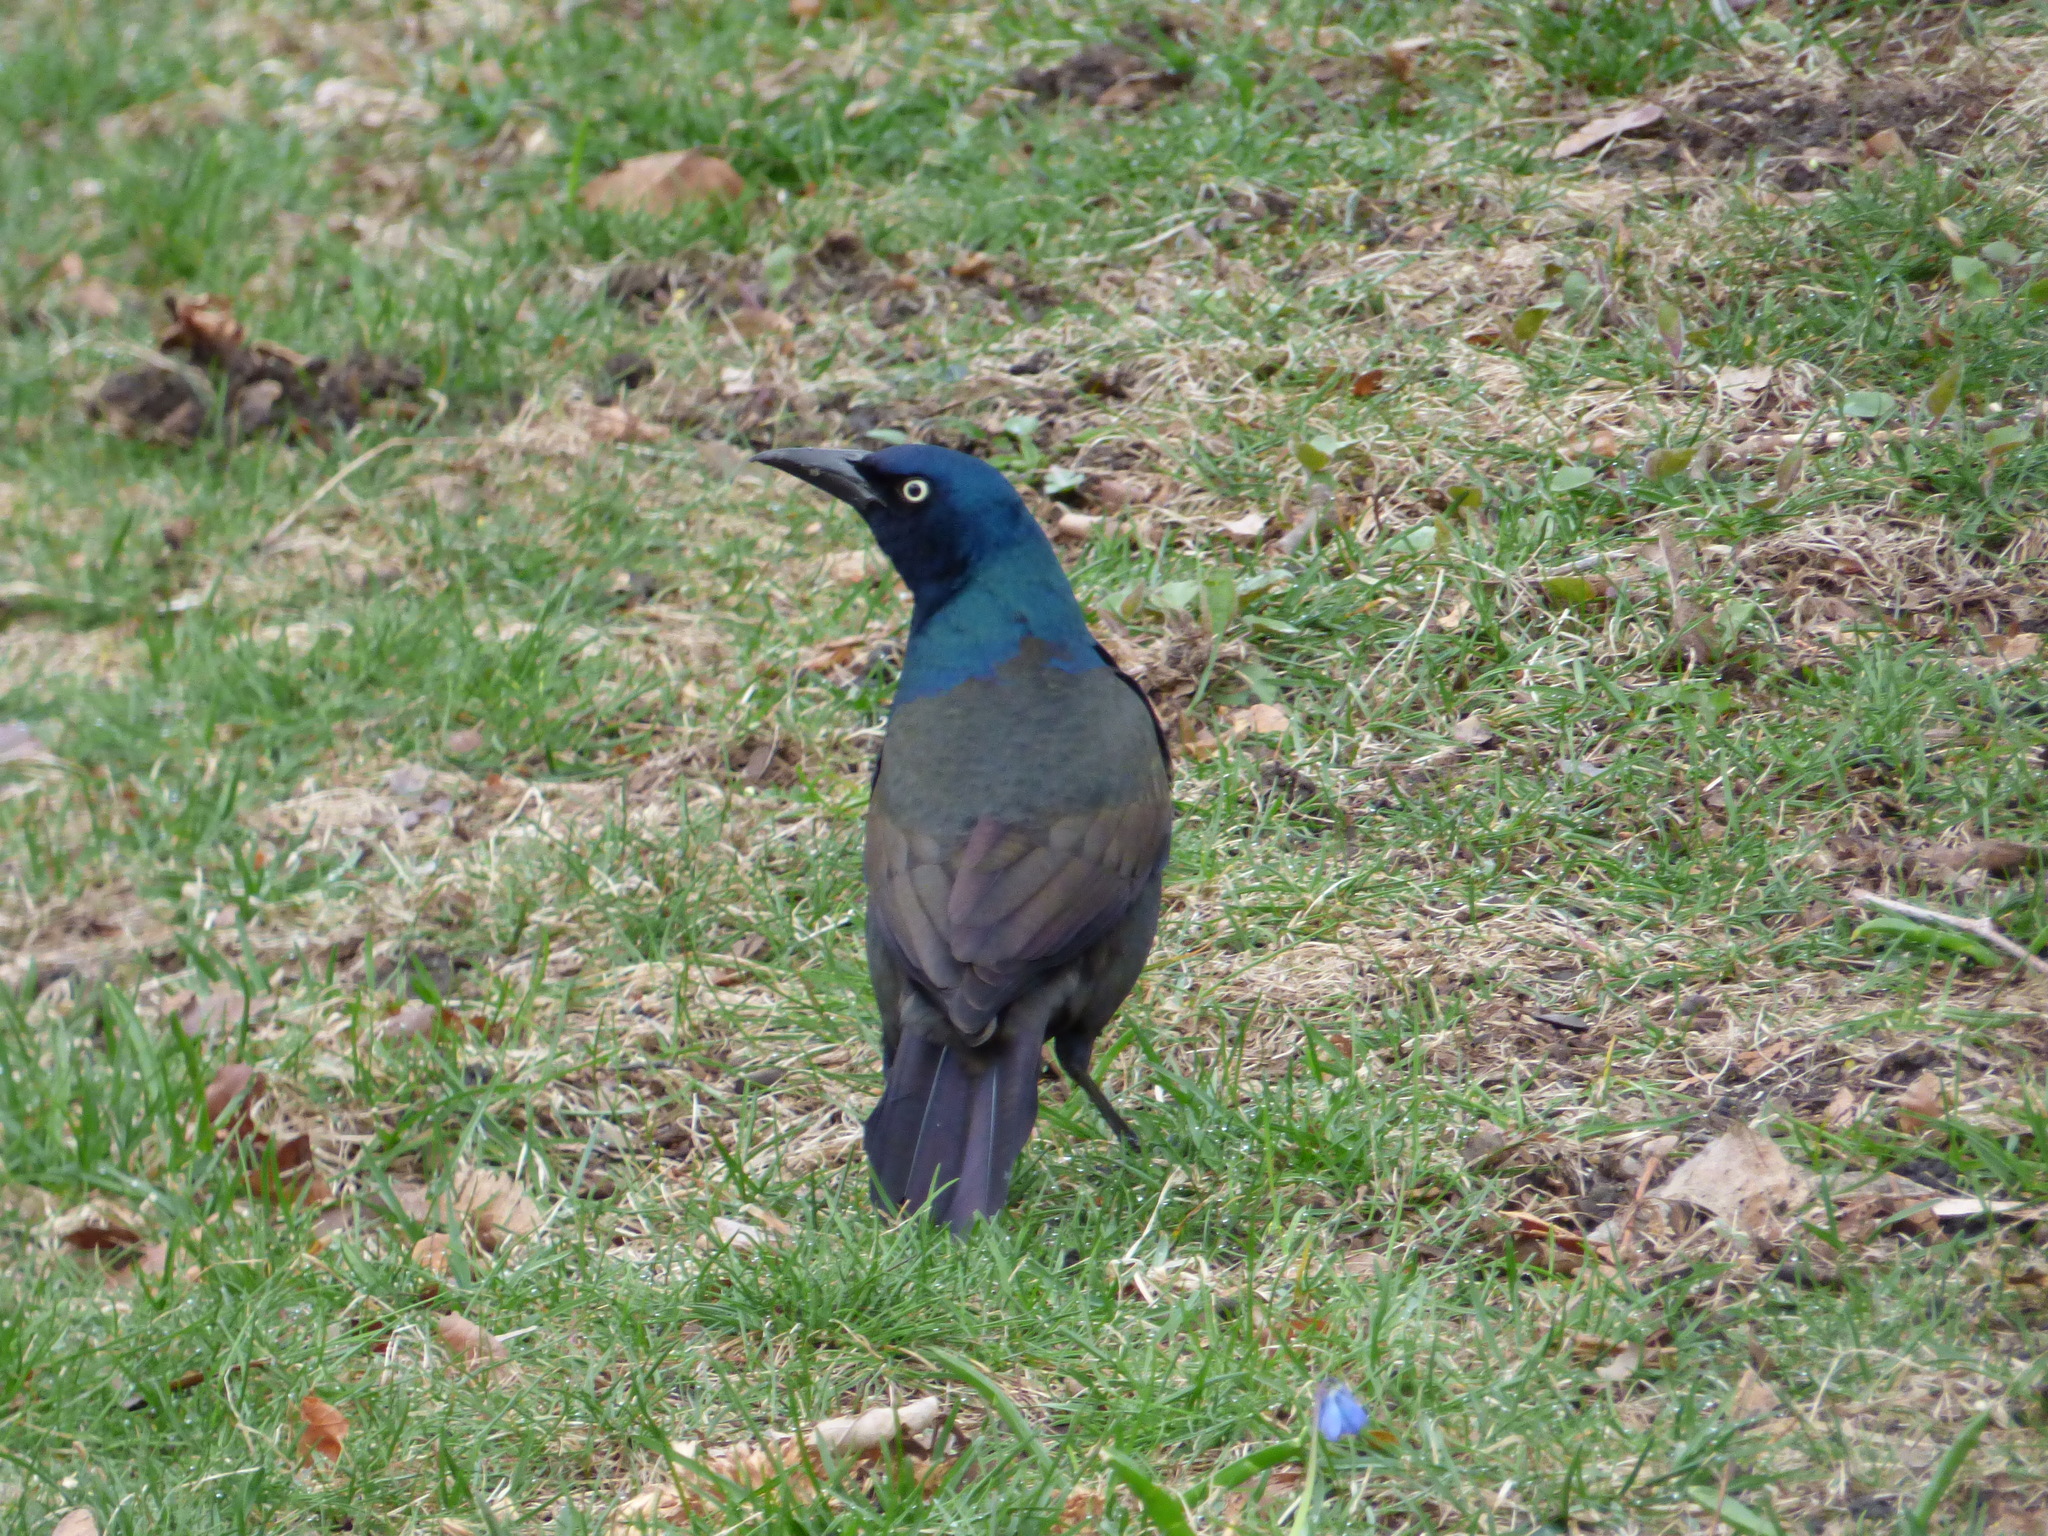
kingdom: Animalia
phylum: Chordata
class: Aves
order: Passeriformes
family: Icteridae
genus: Quiscalus
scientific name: Quiscalus quiscula
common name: Common grackle
